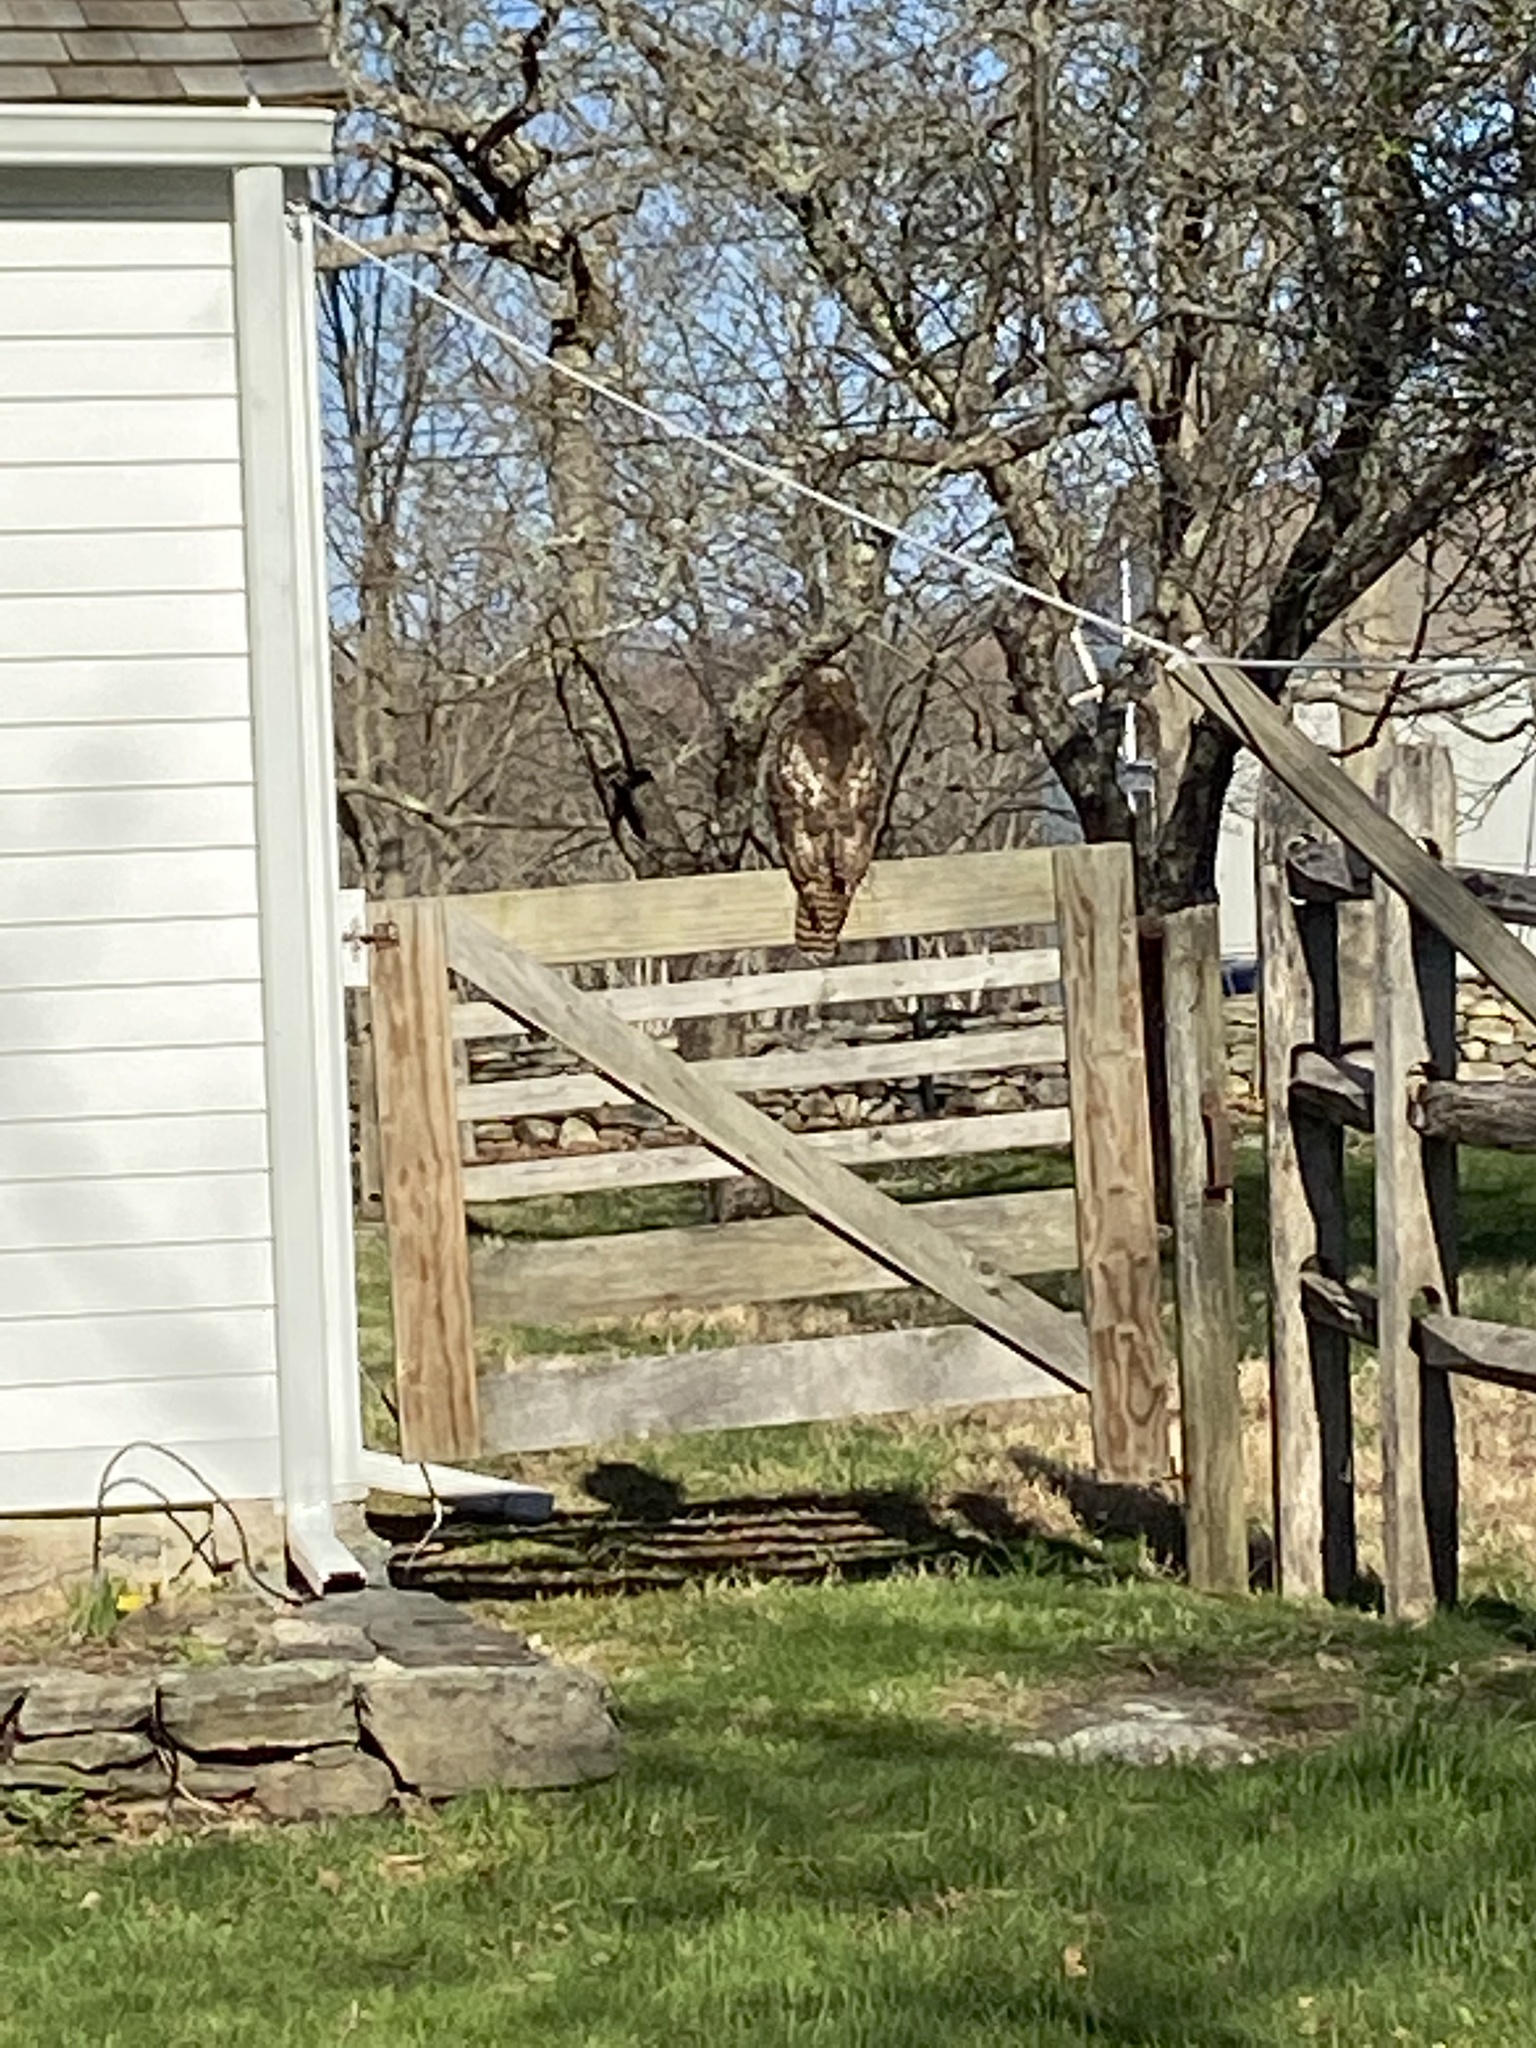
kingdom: Animalia
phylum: Chordata
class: Aves
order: Accipitriformes
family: Accipitridae
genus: Buteo
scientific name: Buteo jamaicensis
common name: Red-tailed hawk
